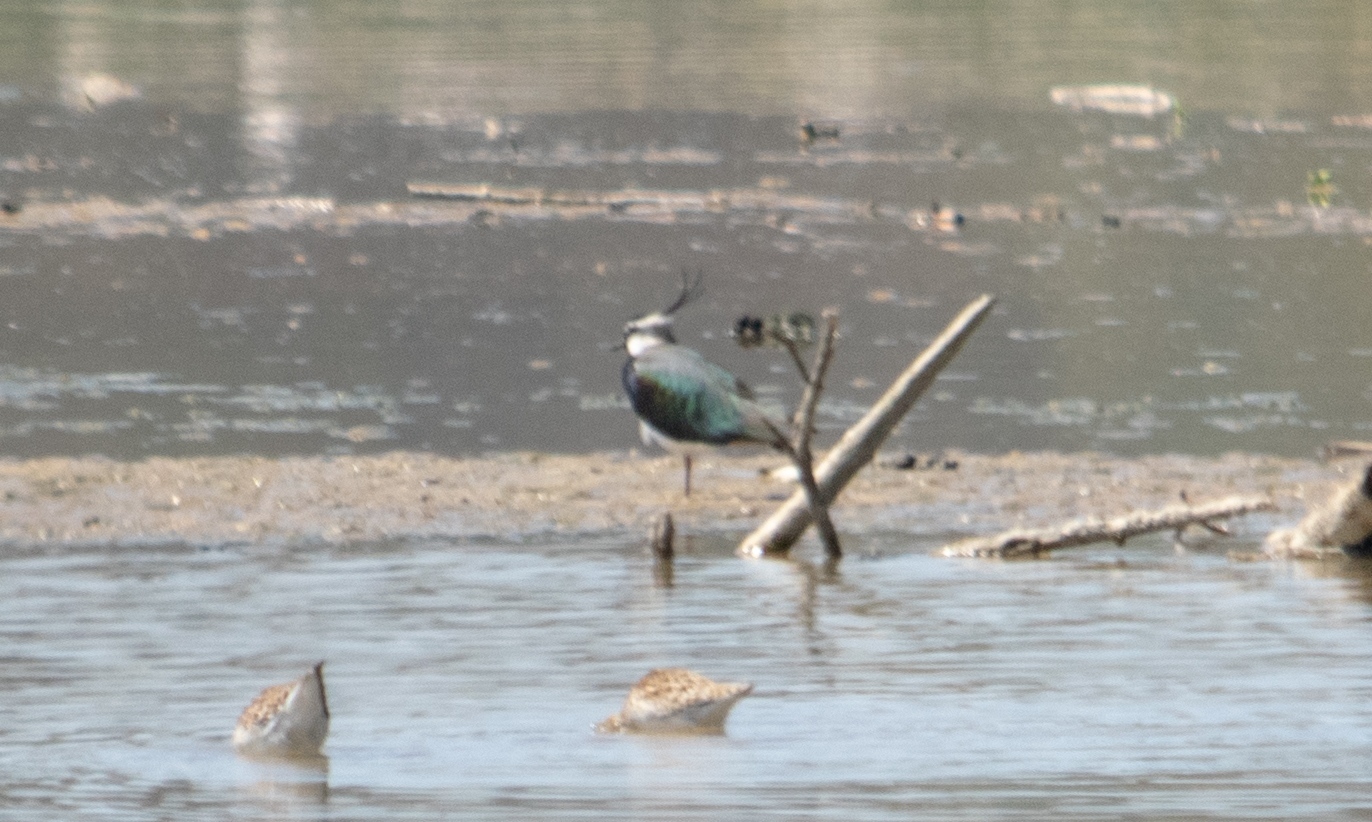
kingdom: Animalia
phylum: Chordata
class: Aves
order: Charadriiformes
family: Charadriidae
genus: Vanellus
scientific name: Vanellus vanellus
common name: Northern lapwing
